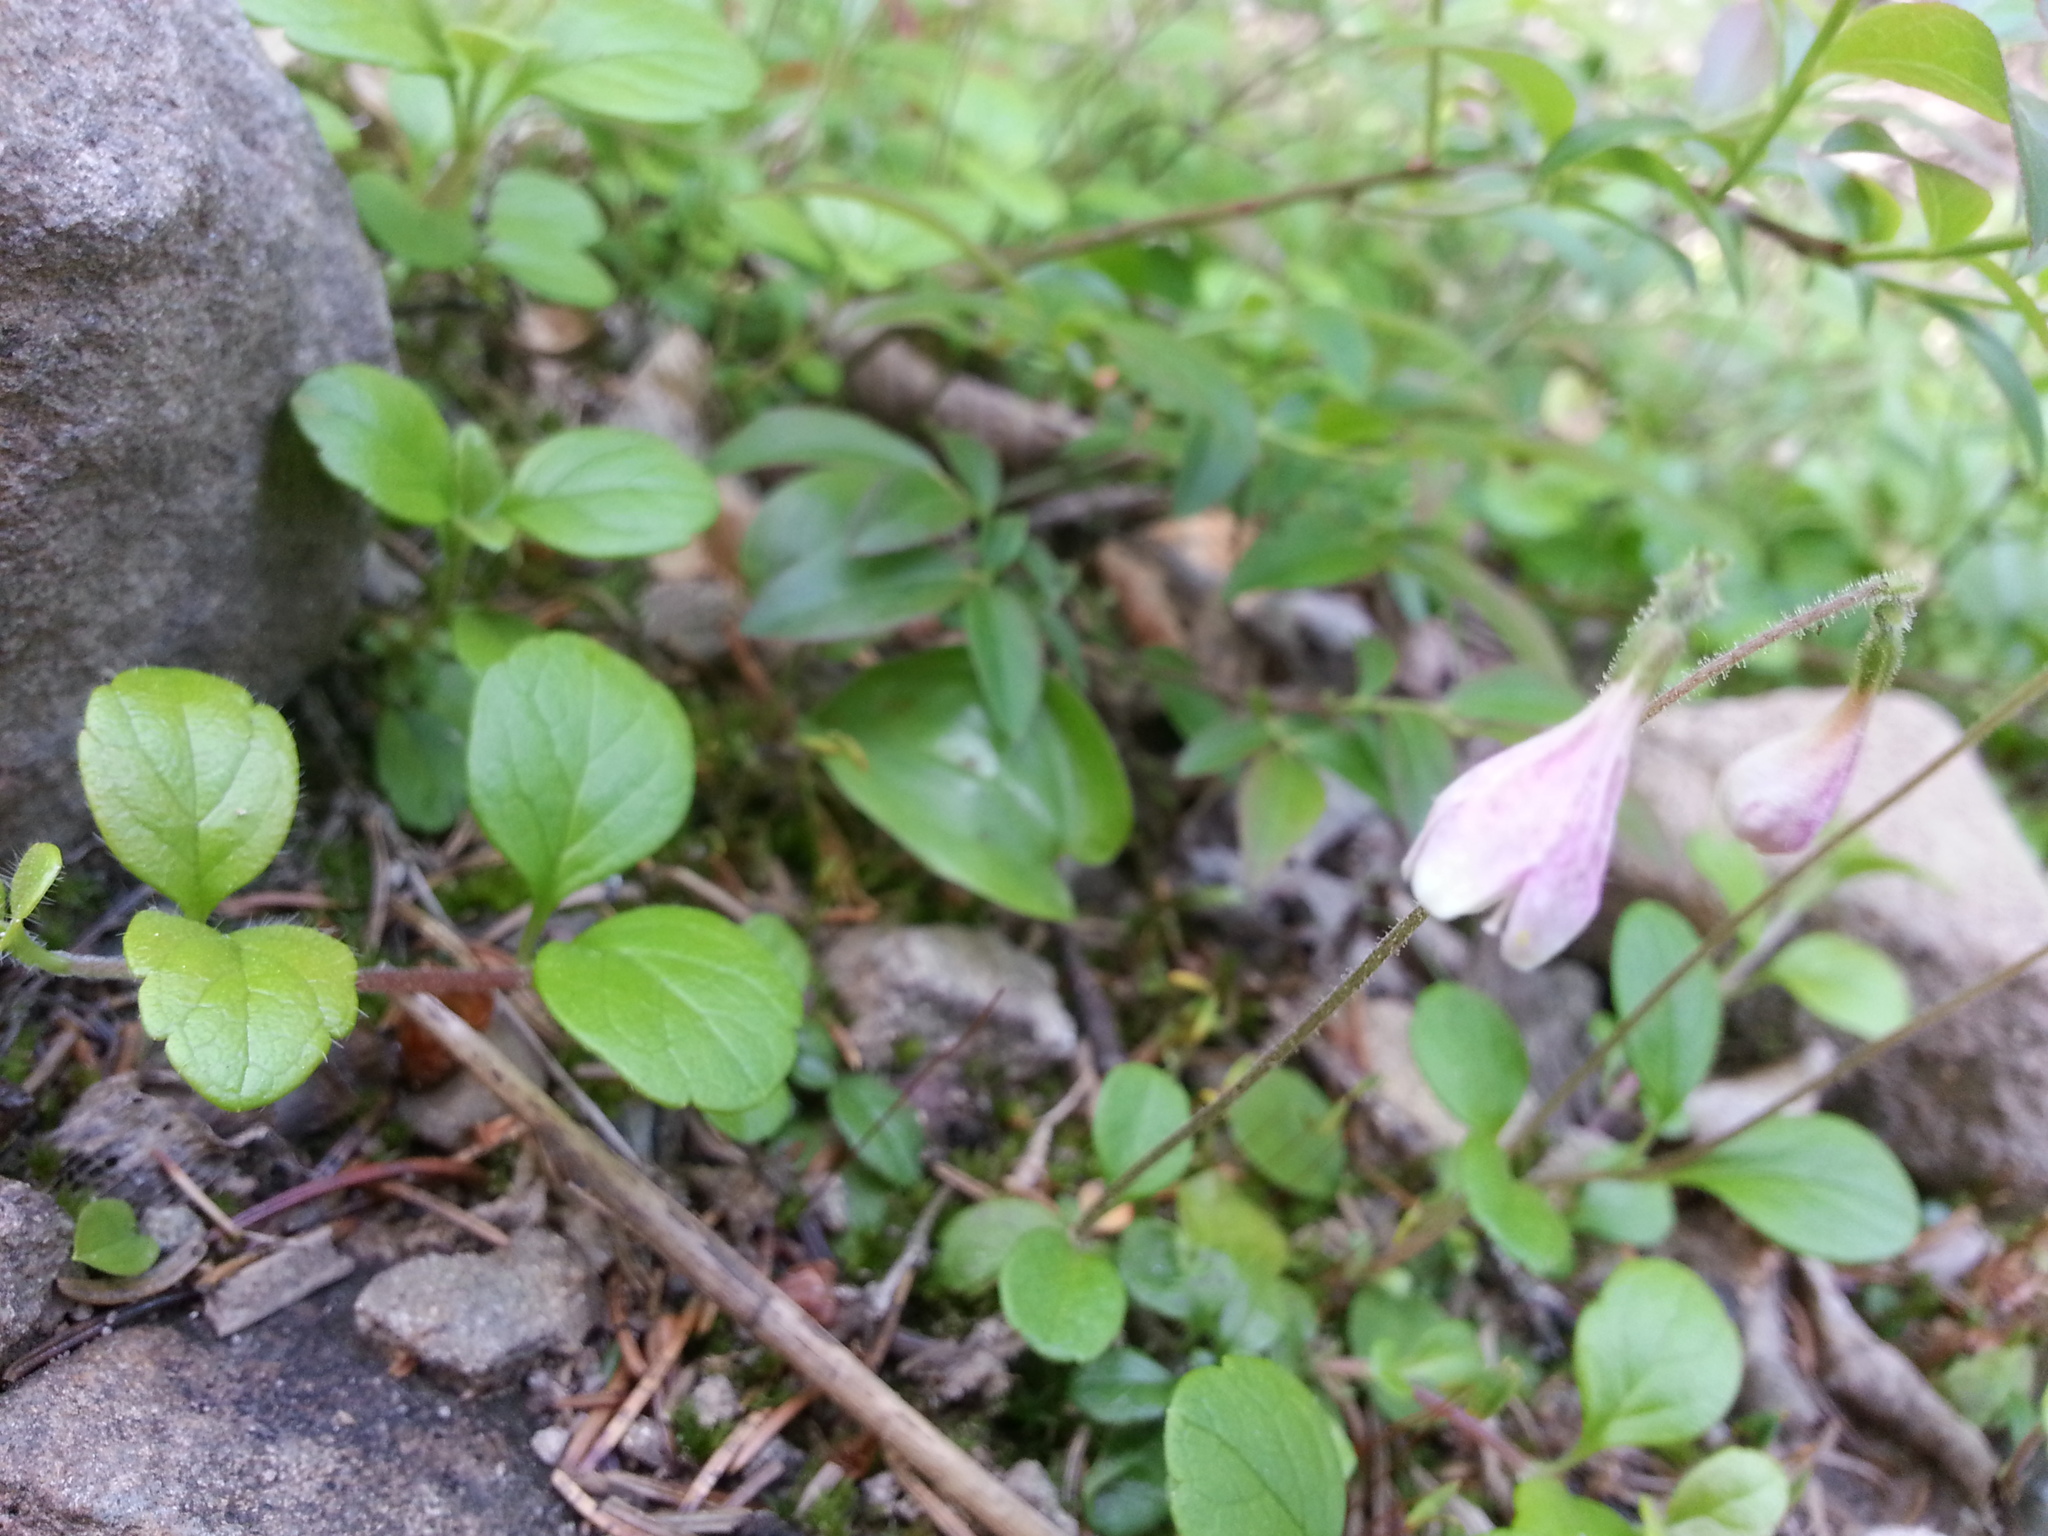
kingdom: Plantae
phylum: Tracheophyta
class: Magnoliopsida
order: Dipsacales
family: Caprifoliaceae
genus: Linnaea
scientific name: Linnaea borealis
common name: Twinflower
